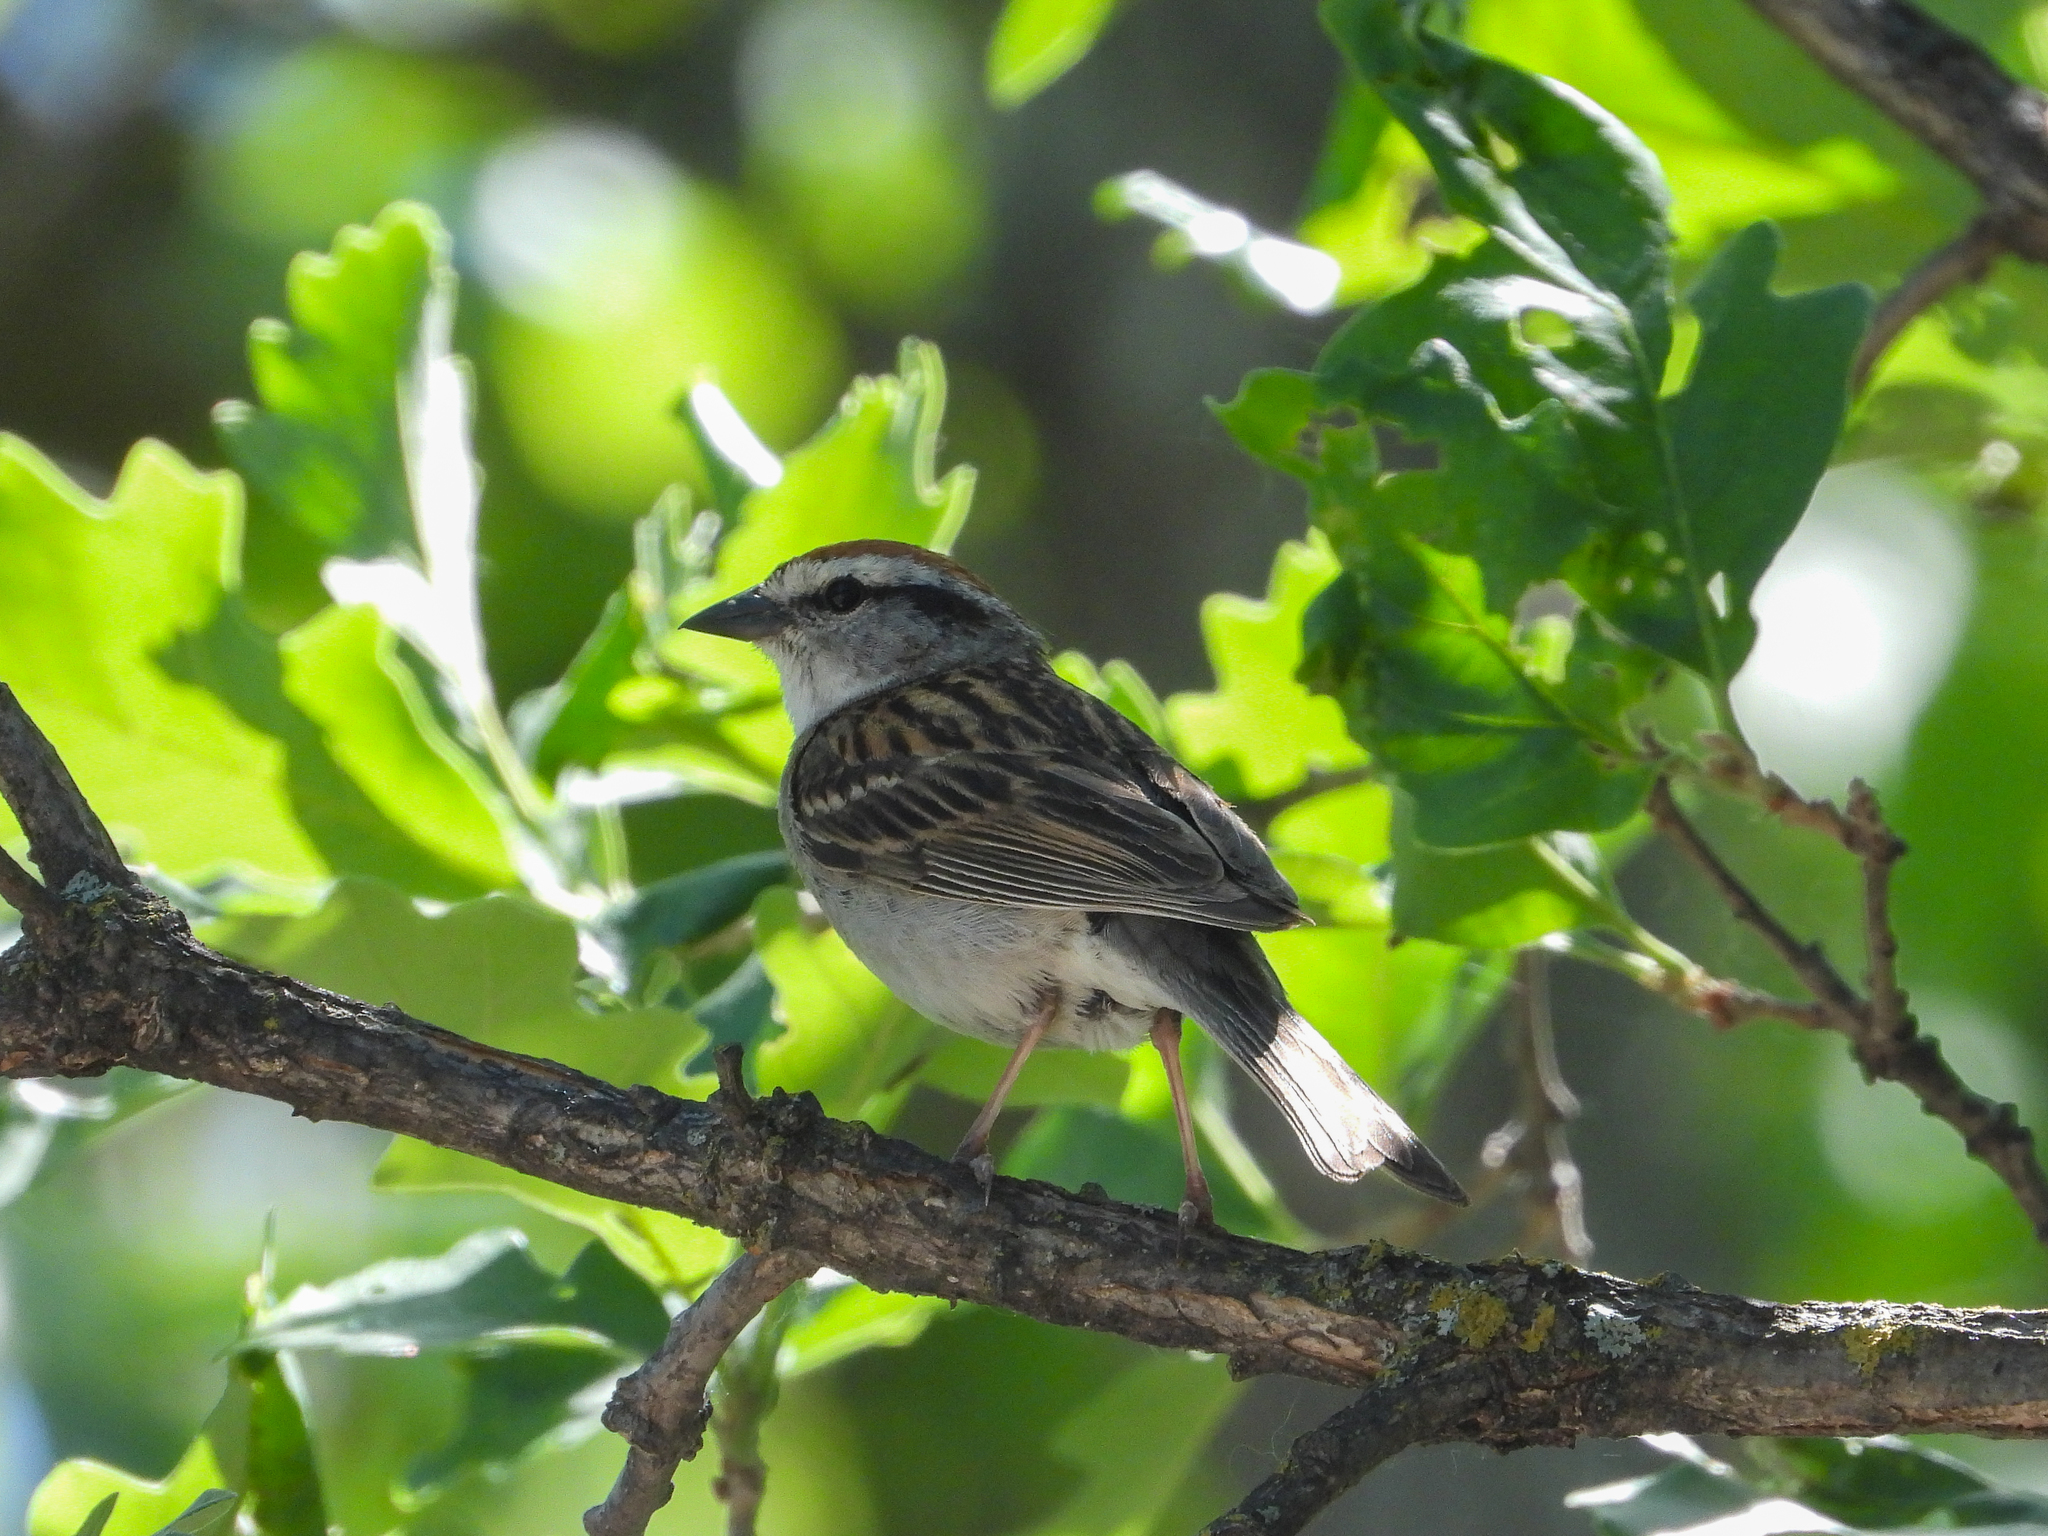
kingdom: Animalia
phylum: Chordata
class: Aves
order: Passeriformes
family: Passerellidae
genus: Spizella
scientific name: Spizella passerina
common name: Chipping sparrow
